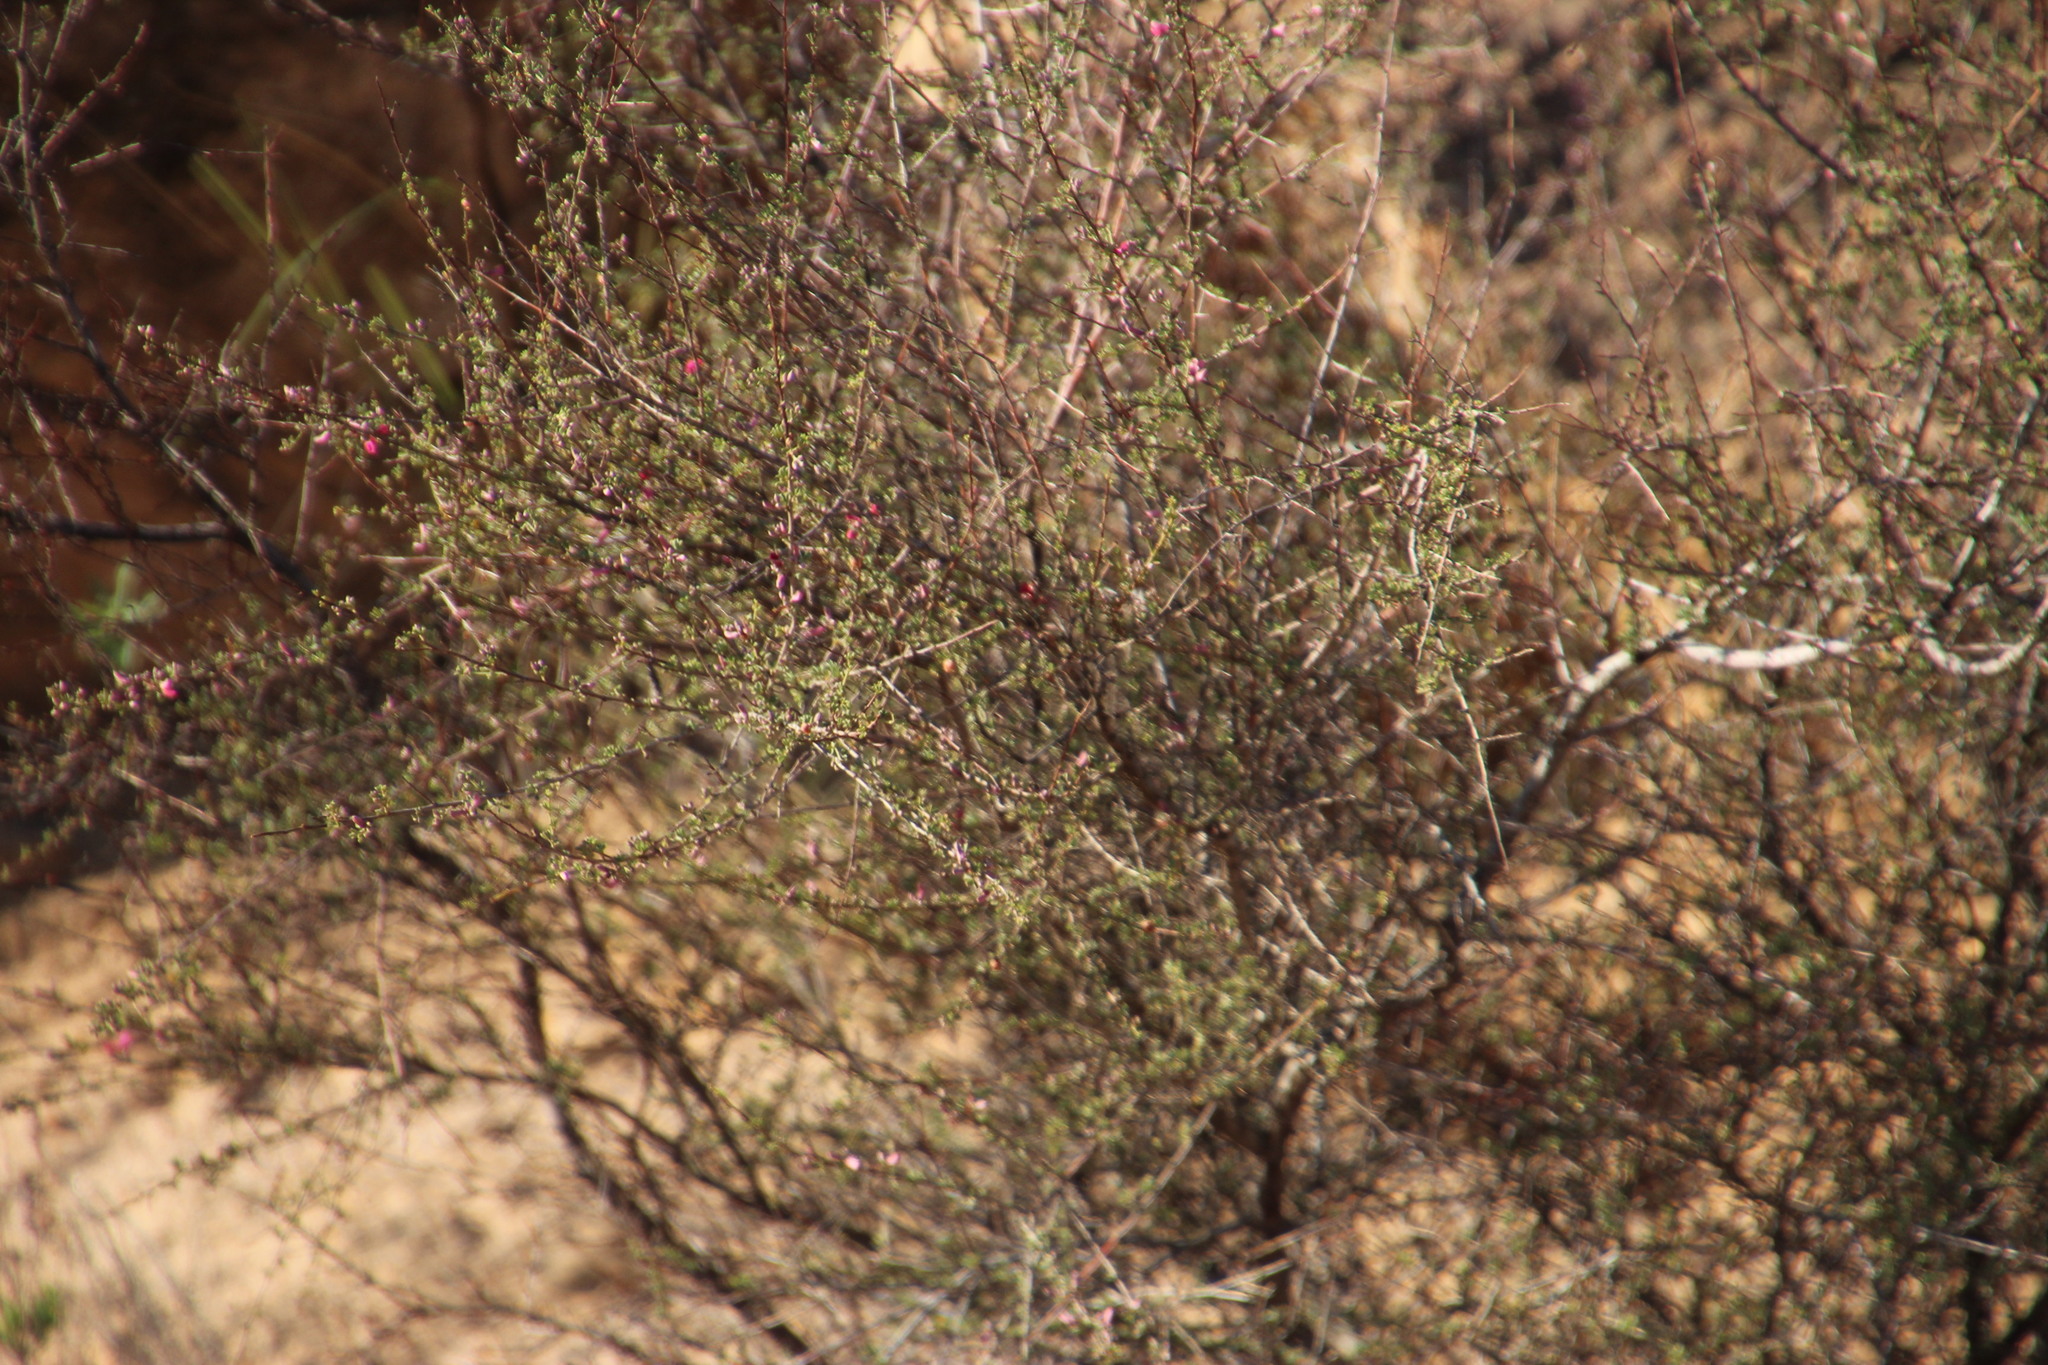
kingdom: Plantae
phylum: Tracheophyta
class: Magnoliopsida
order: Fabales
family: Fabaceae
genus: Indigofera
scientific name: Indigofera spinescens
